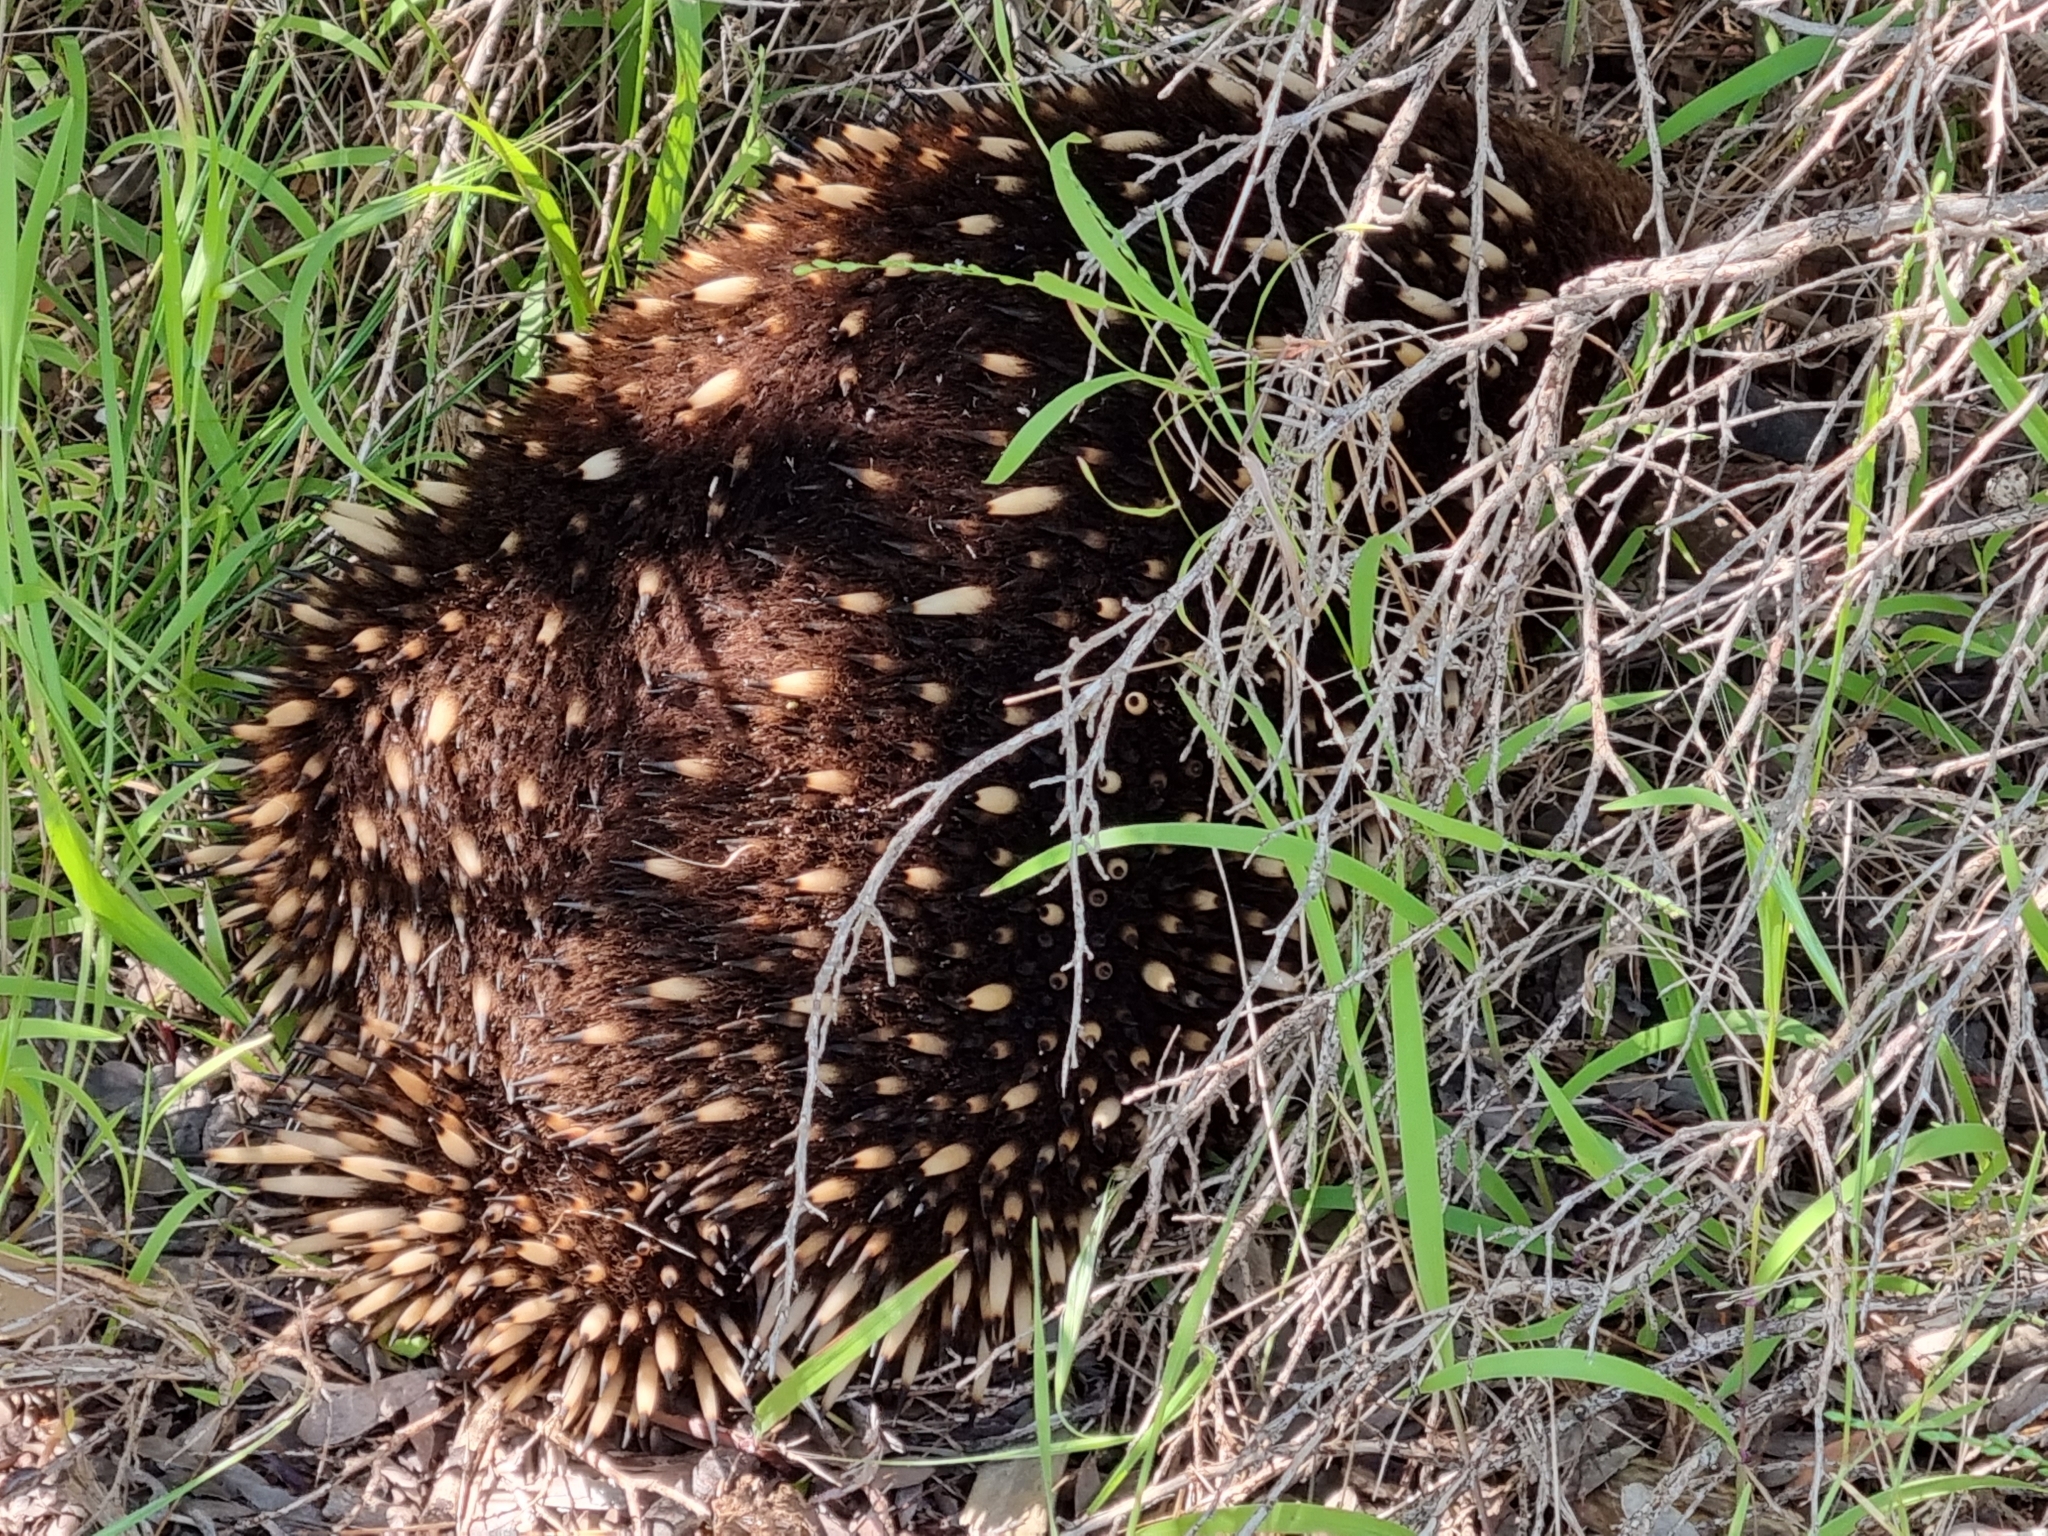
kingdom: Animalia
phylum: Chordata
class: Mammalia
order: Monotremata
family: Tachyglossidae
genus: Tachyglossus
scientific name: Tachyglossus aculeatus
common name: Short-beaked echidna
